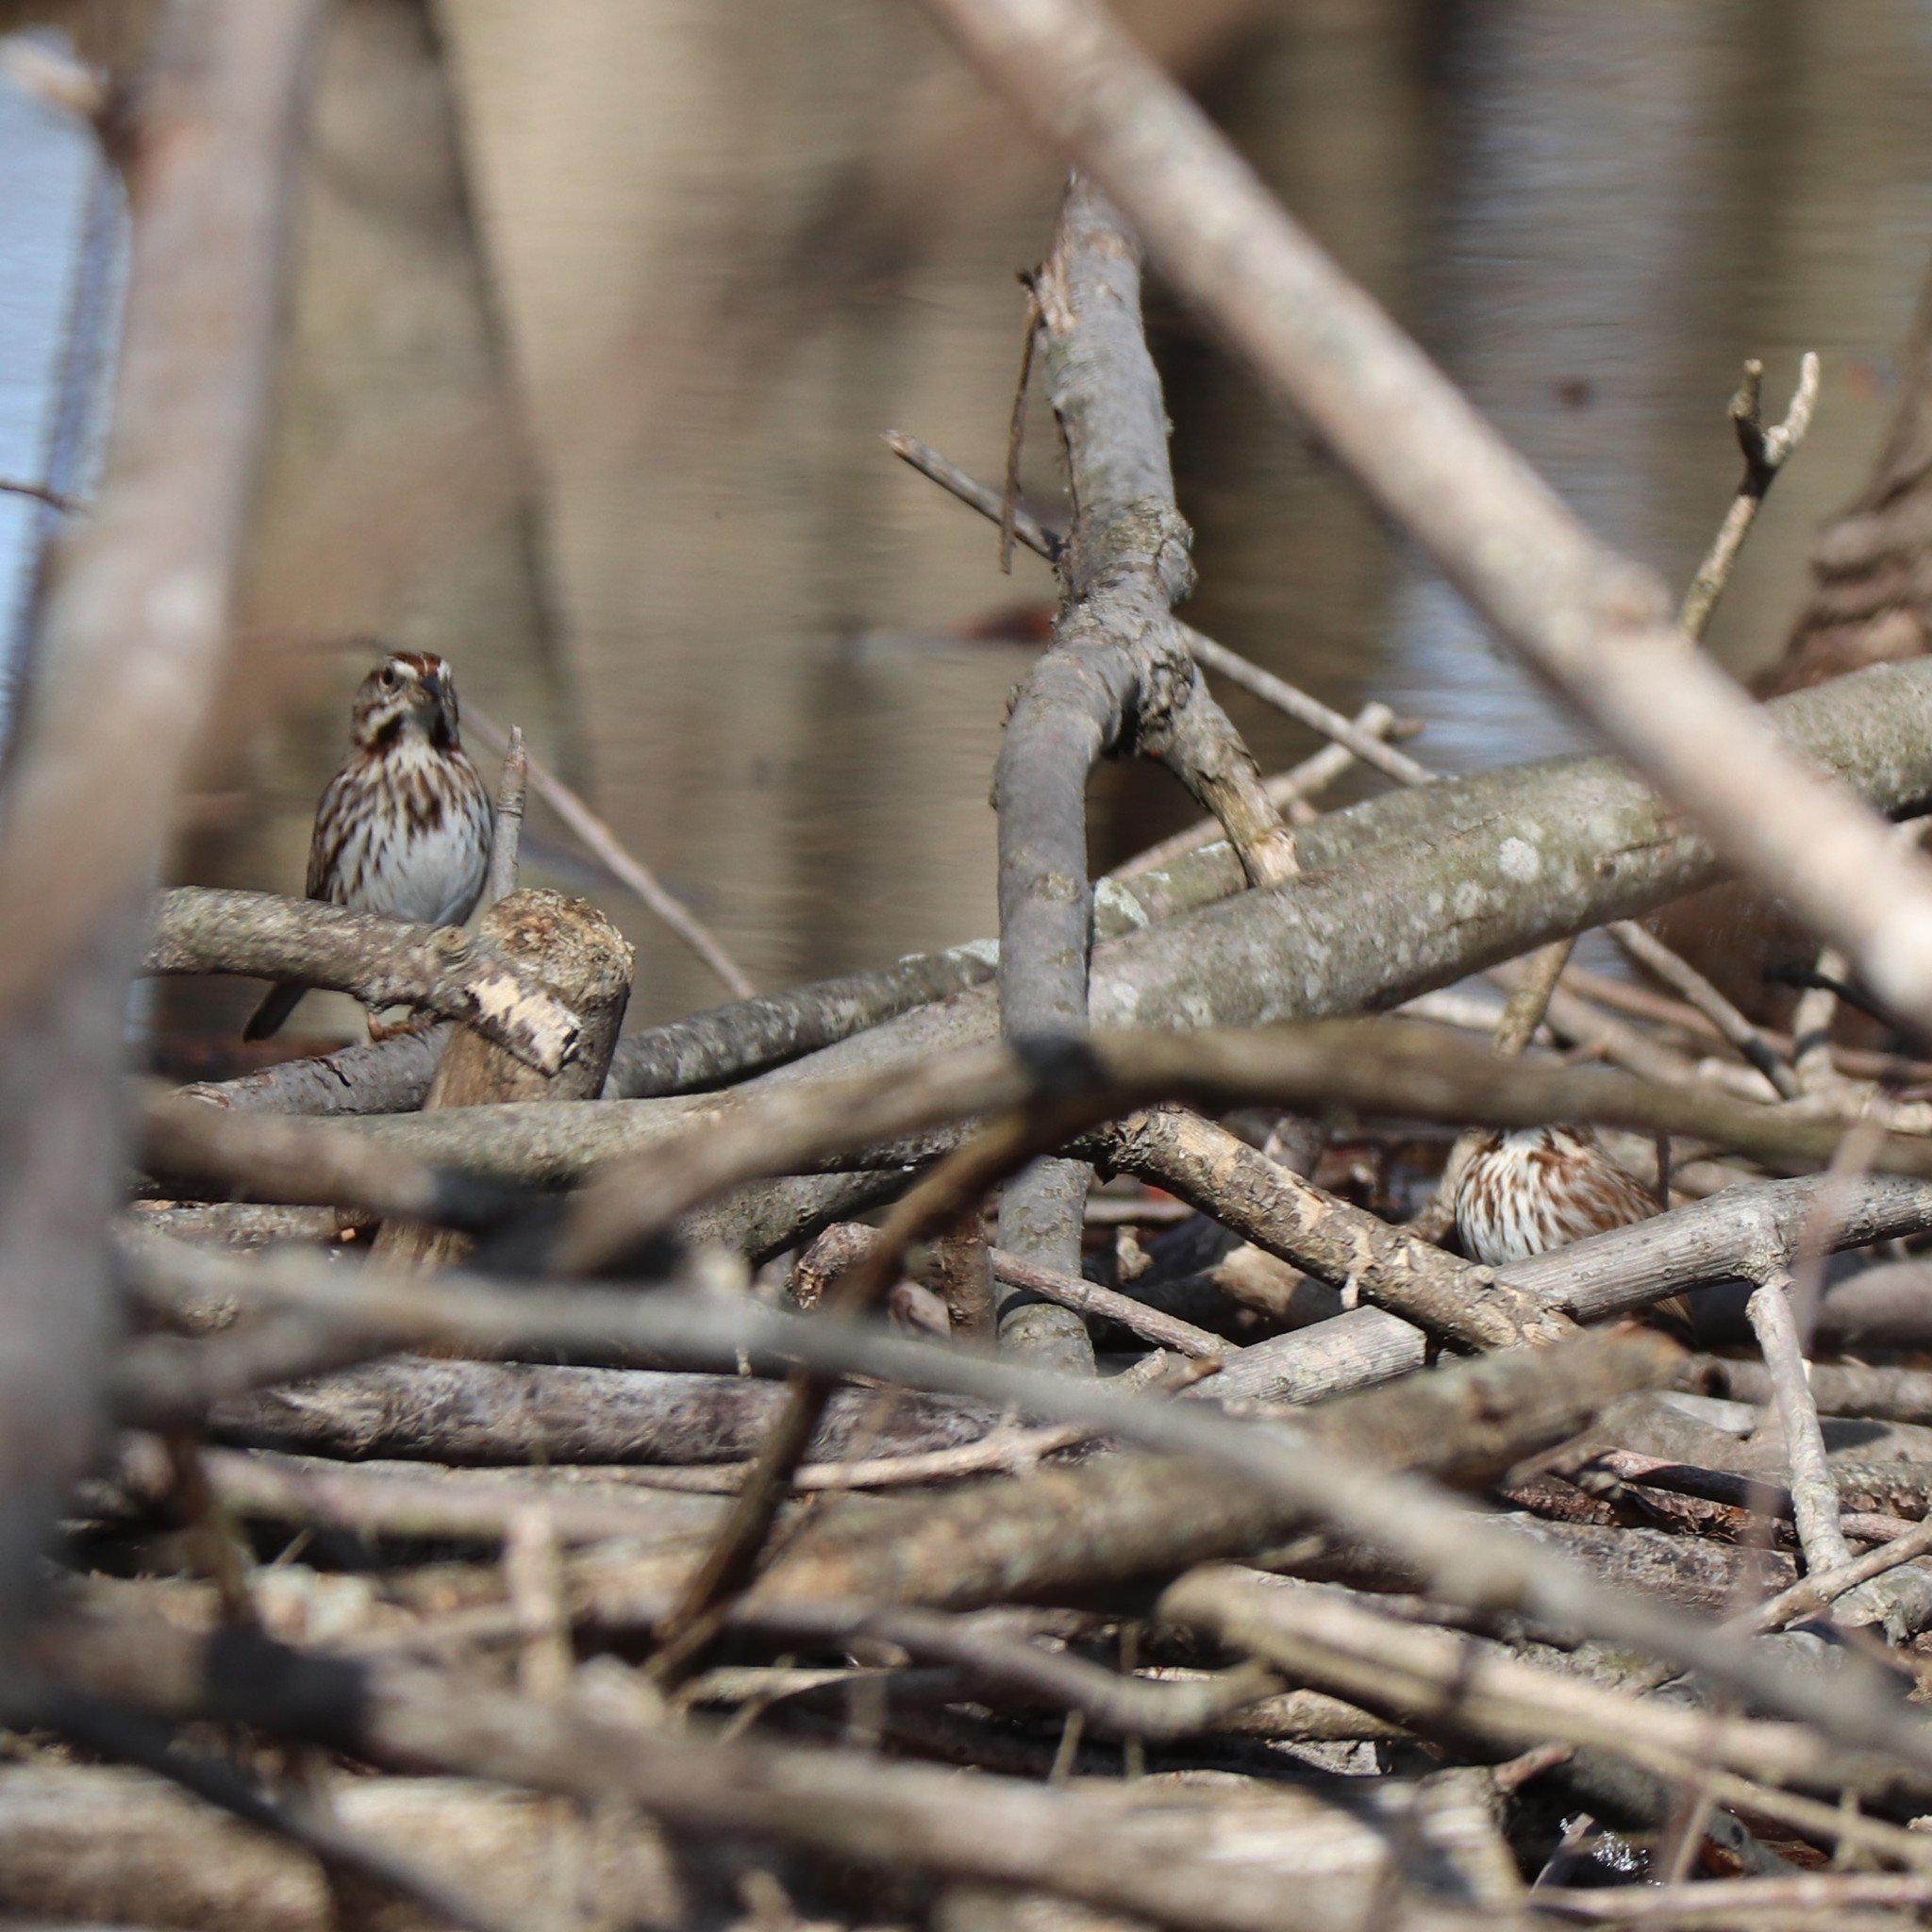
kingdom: Animalia
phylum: Chordata
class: Aves
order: Passeriformes
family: Passerellidae
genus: Melospiza
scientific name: Melospiza melodia
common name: Song sparrow
